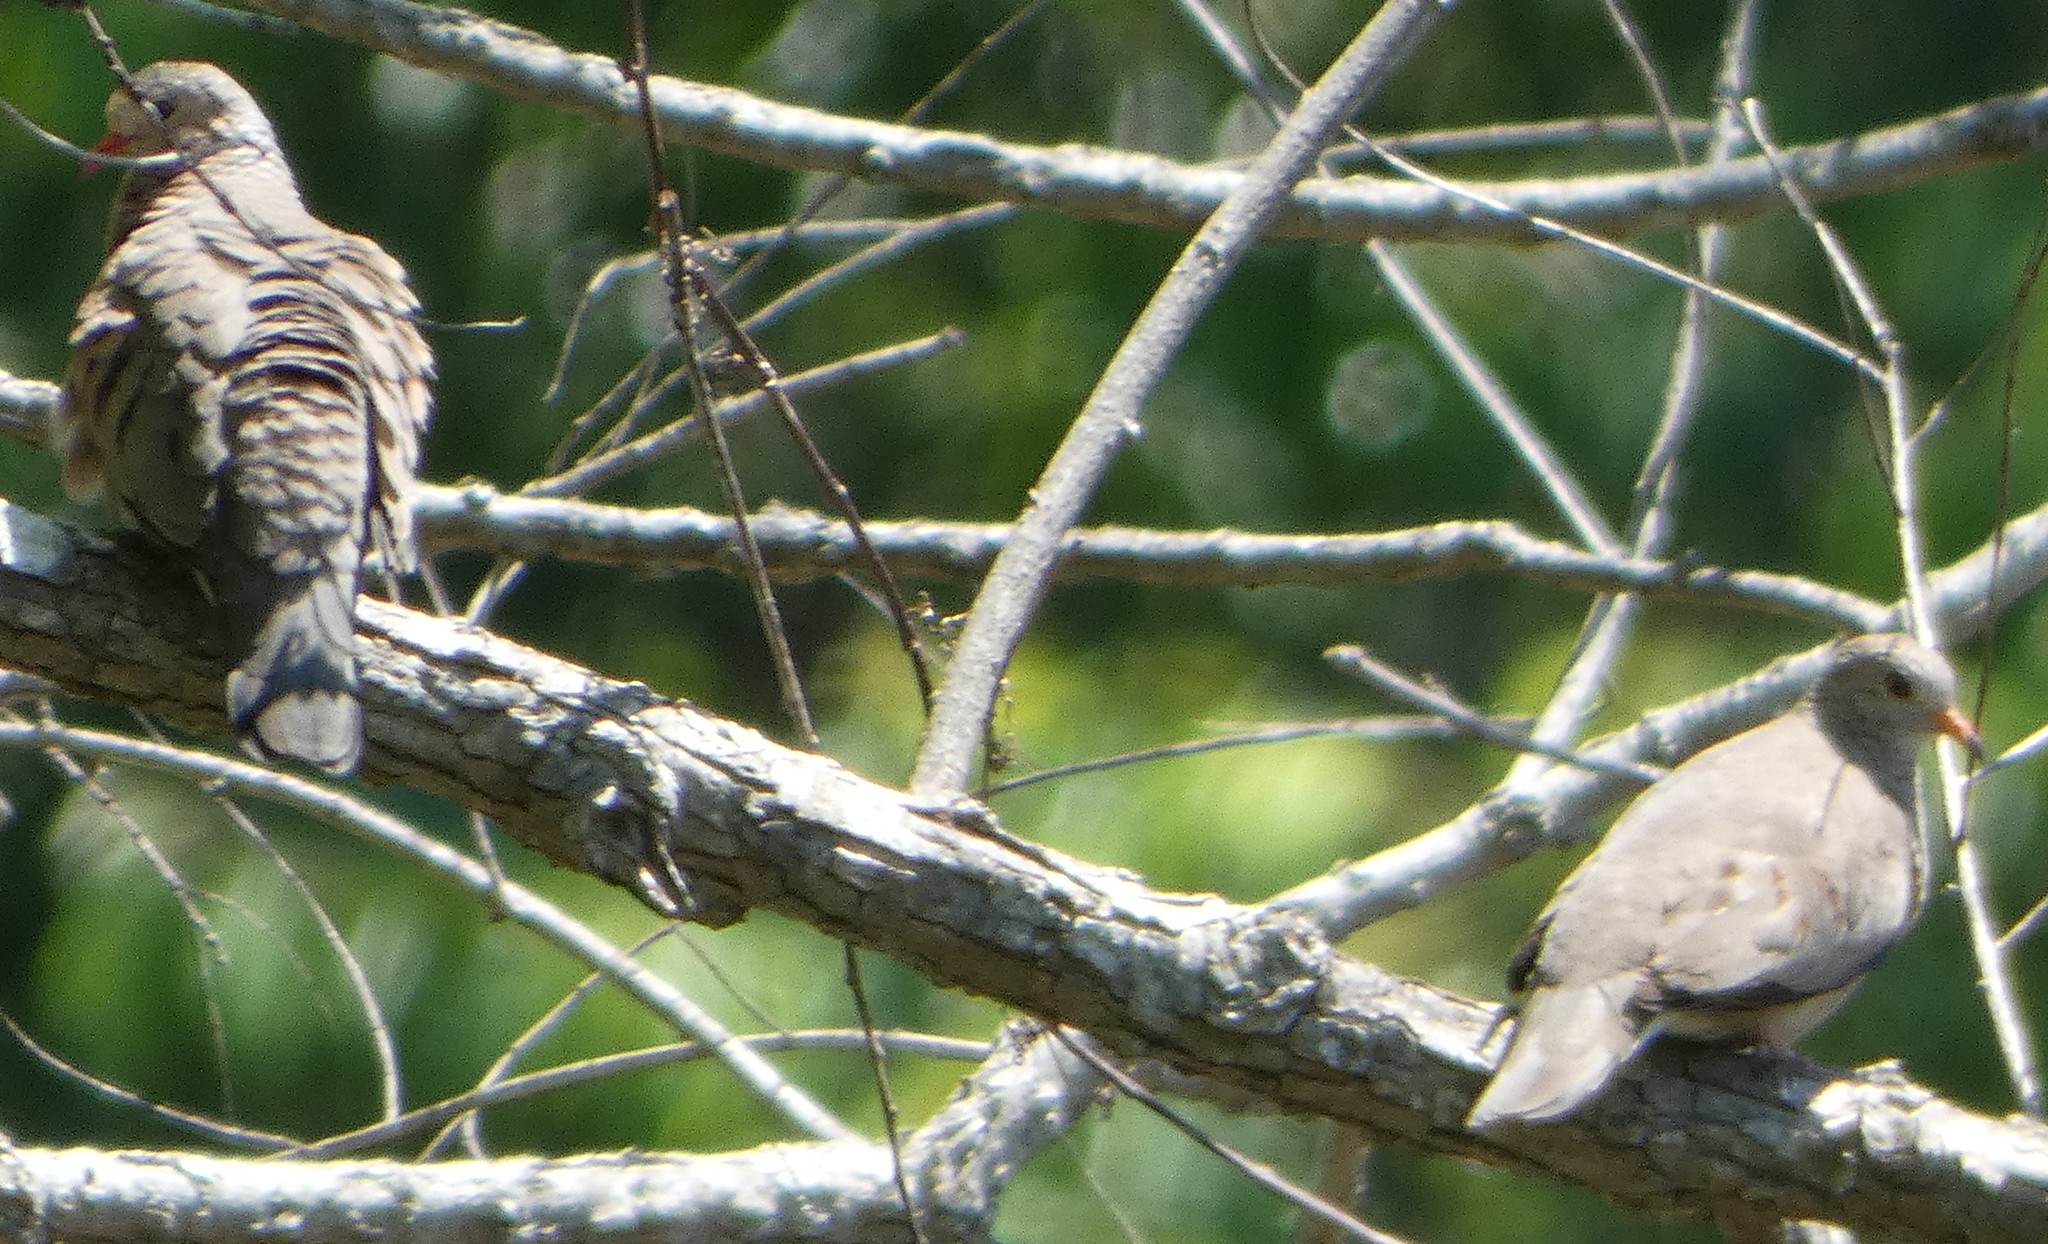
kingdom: Animalia
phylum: Chordata
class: Aves
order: Columbiformes
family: Columbidae
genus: Columbina
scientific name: Columbina passerina
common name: Common ground-dove
